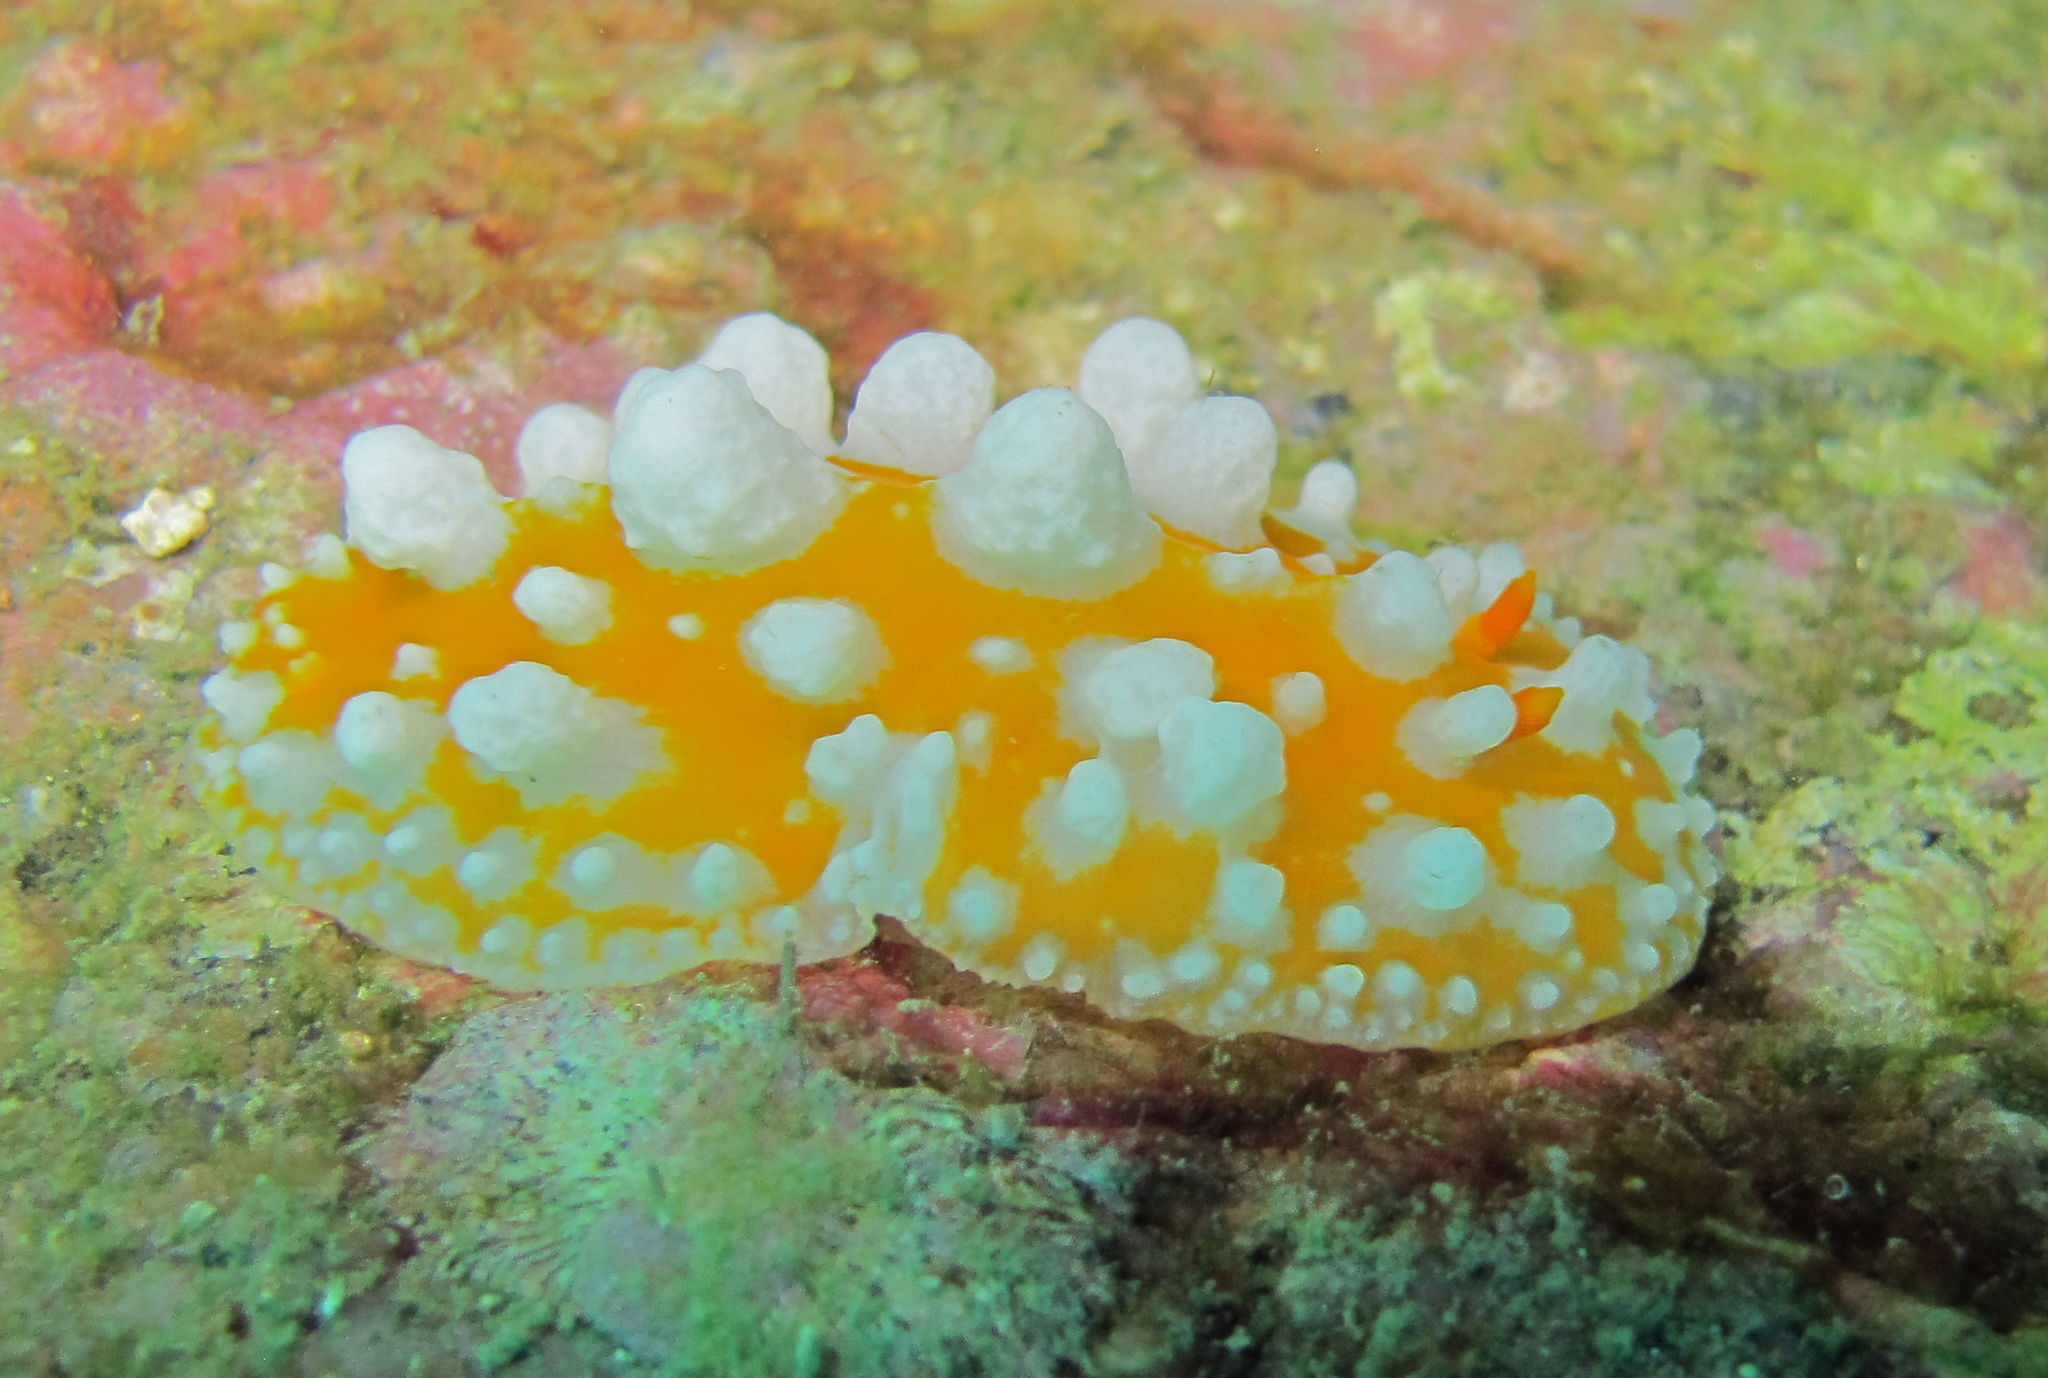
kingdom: Animalia
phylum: Mollusca
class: Gastropoda
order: Nudibranchia
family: Phyllidiidae
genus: Phyllidia
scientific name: Phyllidia ocellata
